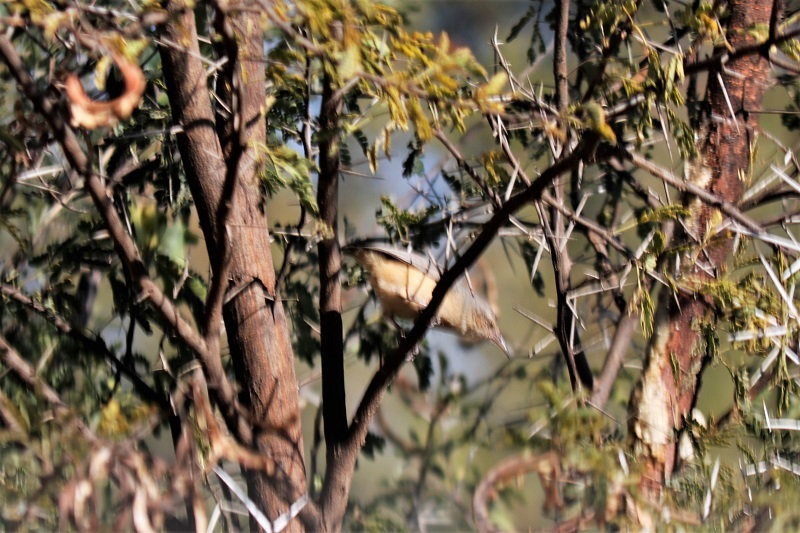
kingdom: Animalia
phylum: Chordata
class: Aves
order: Passeriformes
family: Macrosphenidae
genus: Sylvietta
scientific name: Sylvietta rufescens
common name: Long-billed crombec
